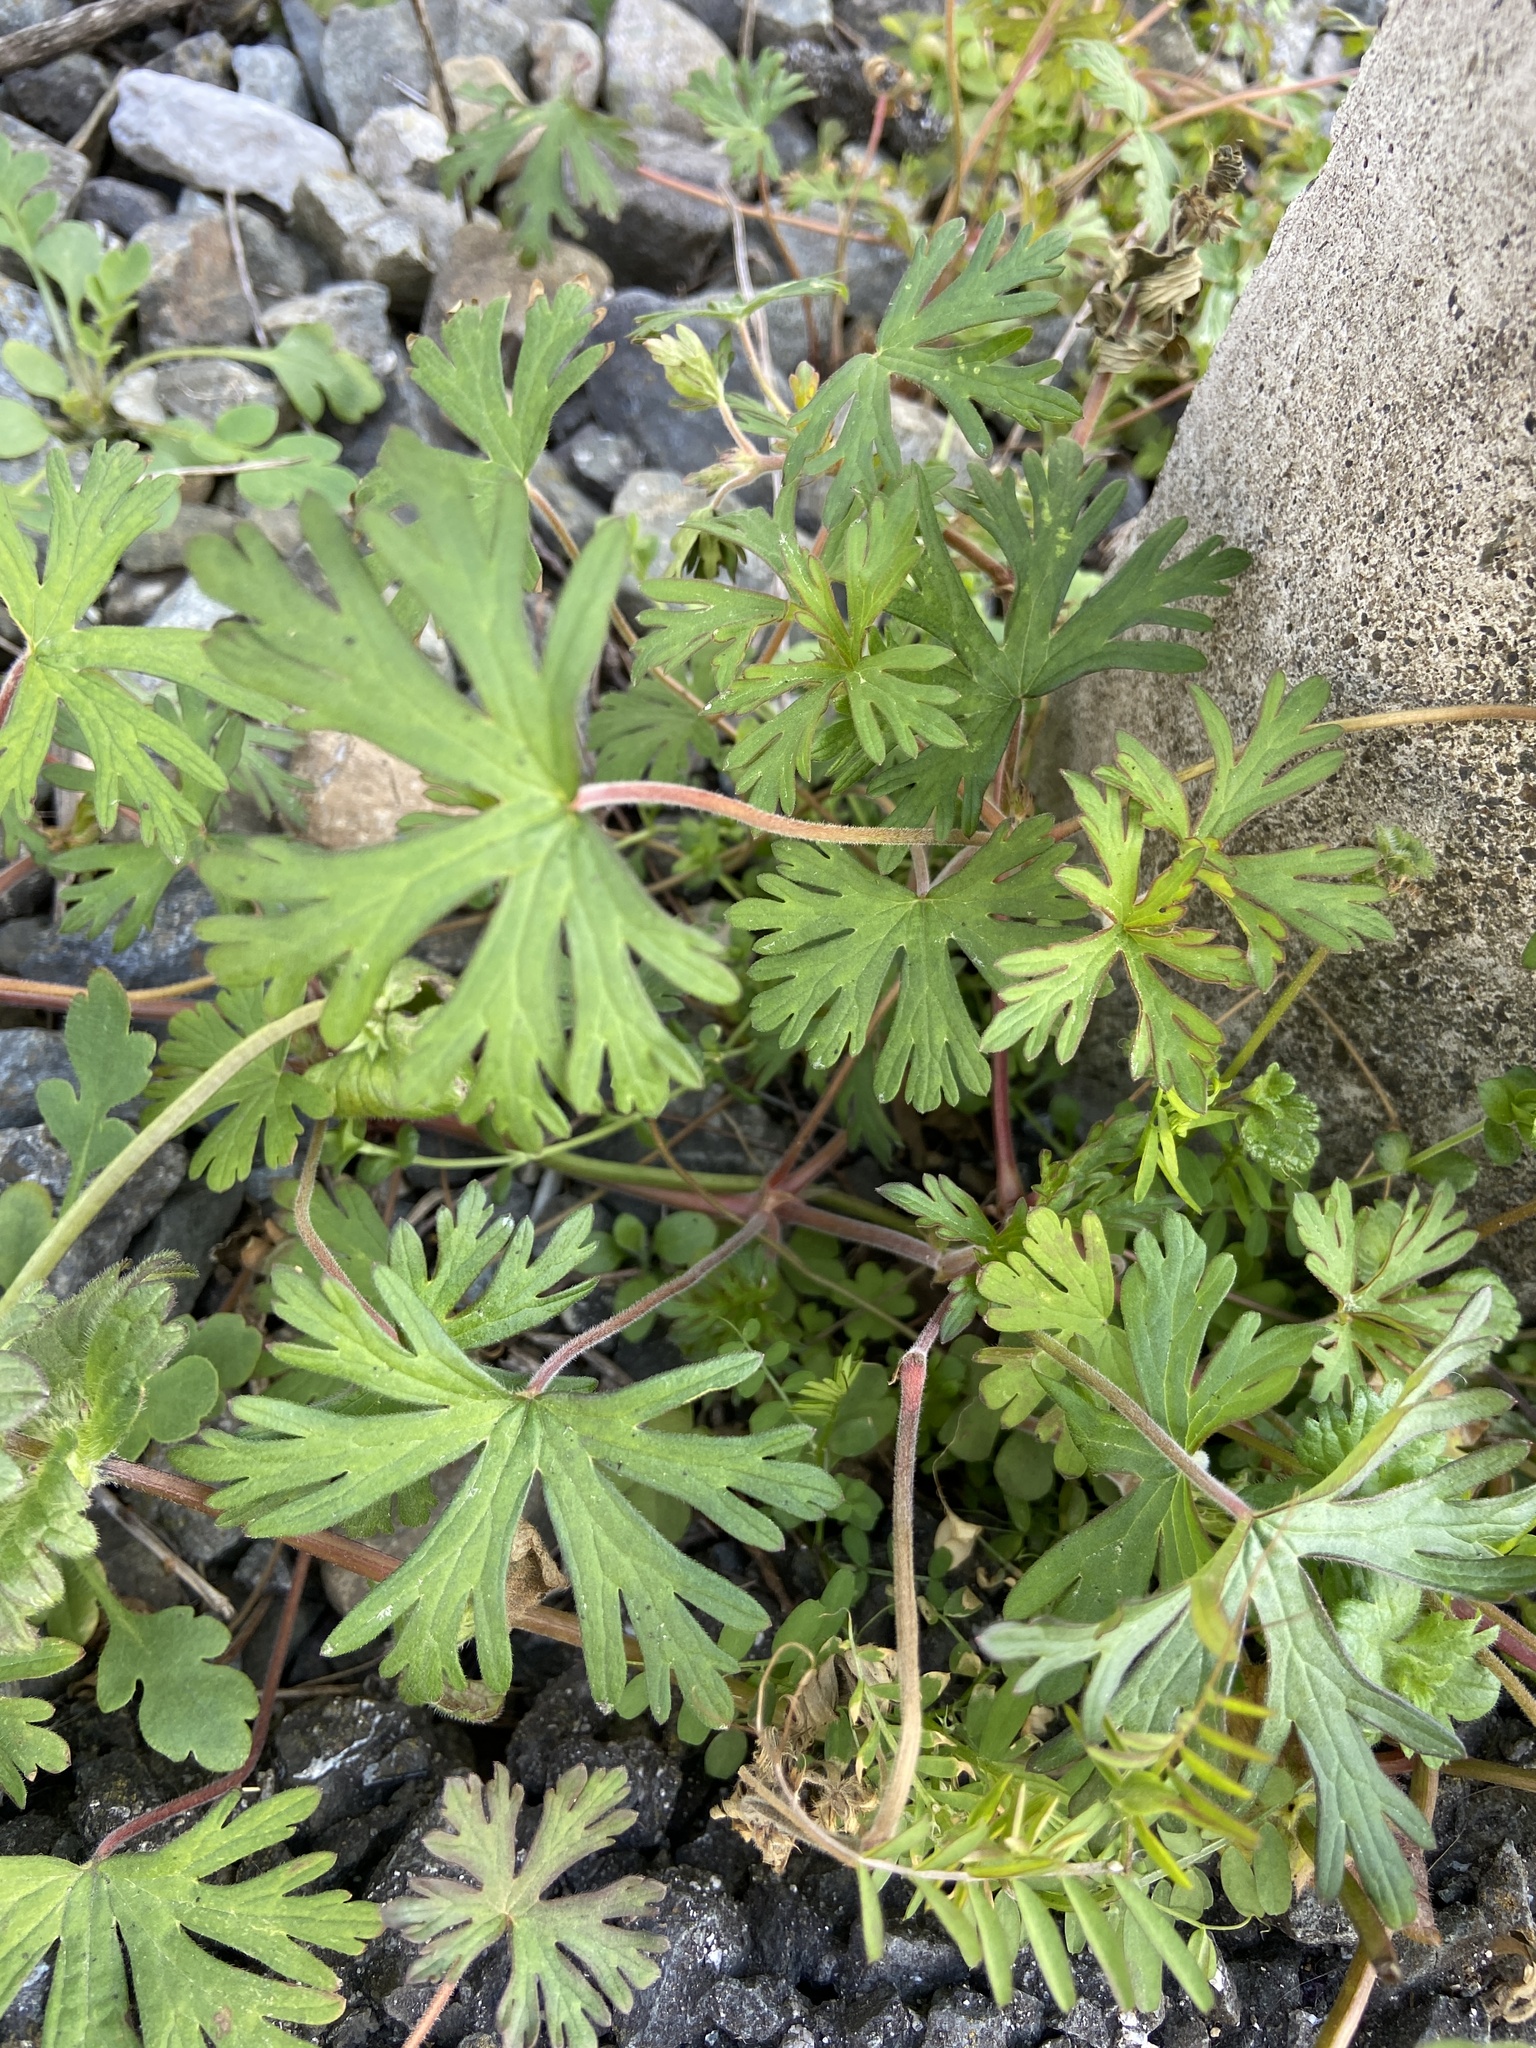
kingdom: Plantae
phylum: Tracheophyta
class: Magnoliopsida
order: Geraniales
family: Geraniaceae
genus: Geranium
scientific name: Geranium carolinianum
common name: Carolina crane's-bill
